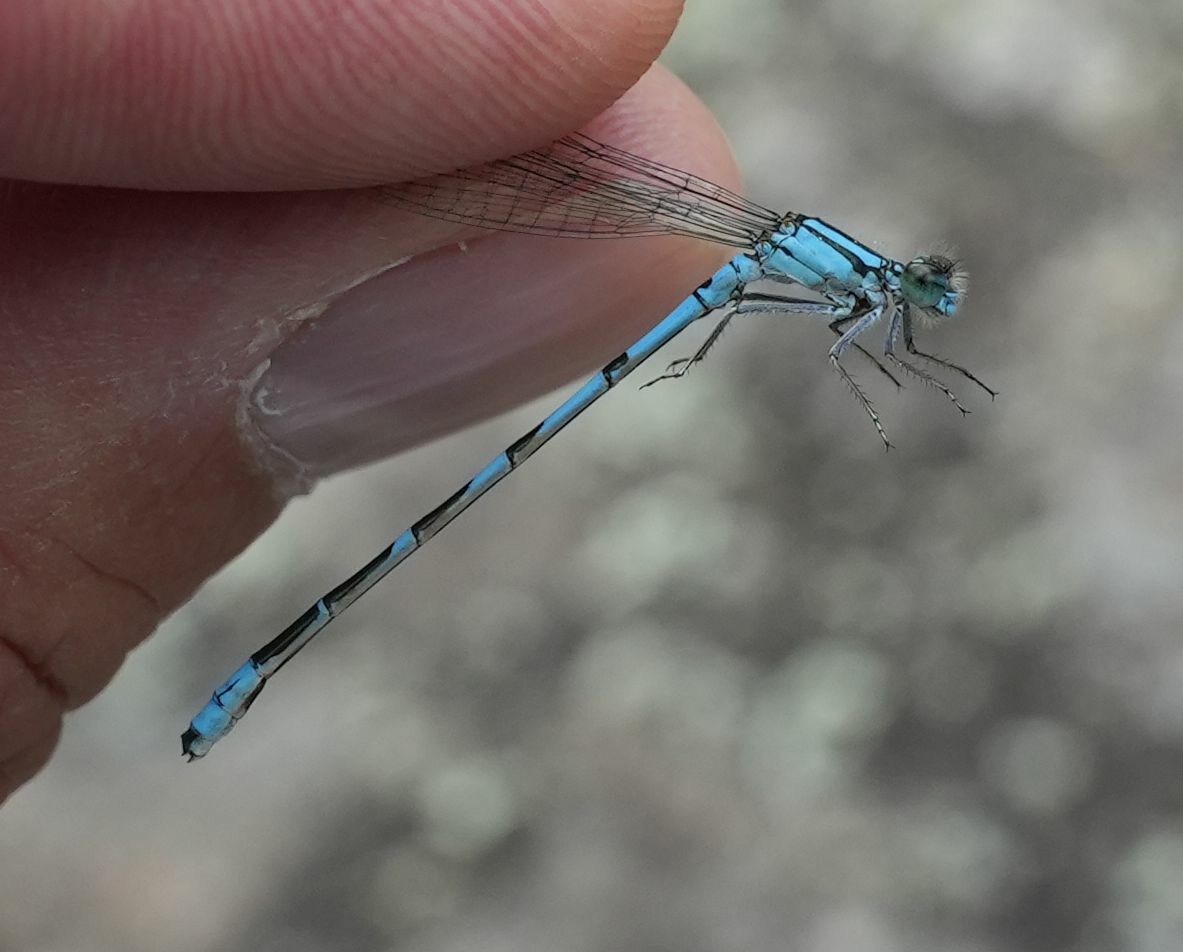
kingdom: Animalia
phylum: Arthropoda
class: Insecta
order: Odonata
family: Coenagrionidae
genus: Enallagma
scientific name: Enallagma hageni
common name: Hagen's bluet
